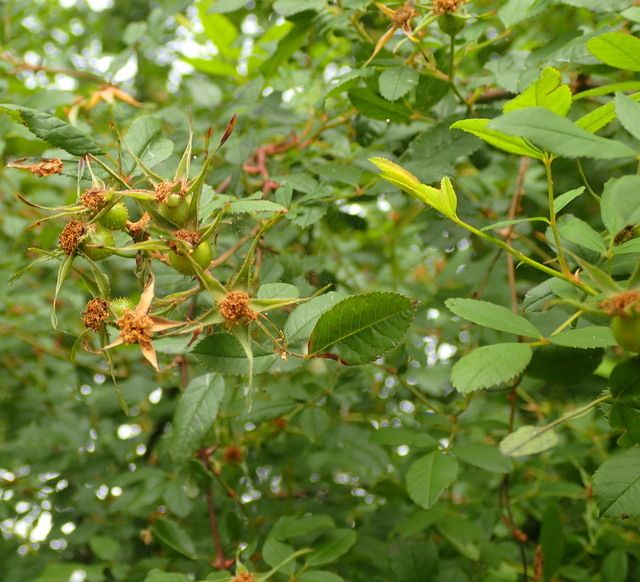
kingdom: Plantae
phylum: Tracheophyta
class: Magnoliopsida
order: Rosales
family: Rosaceae
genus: Rosa
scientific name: Rosa palustris
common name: Swamp rose
